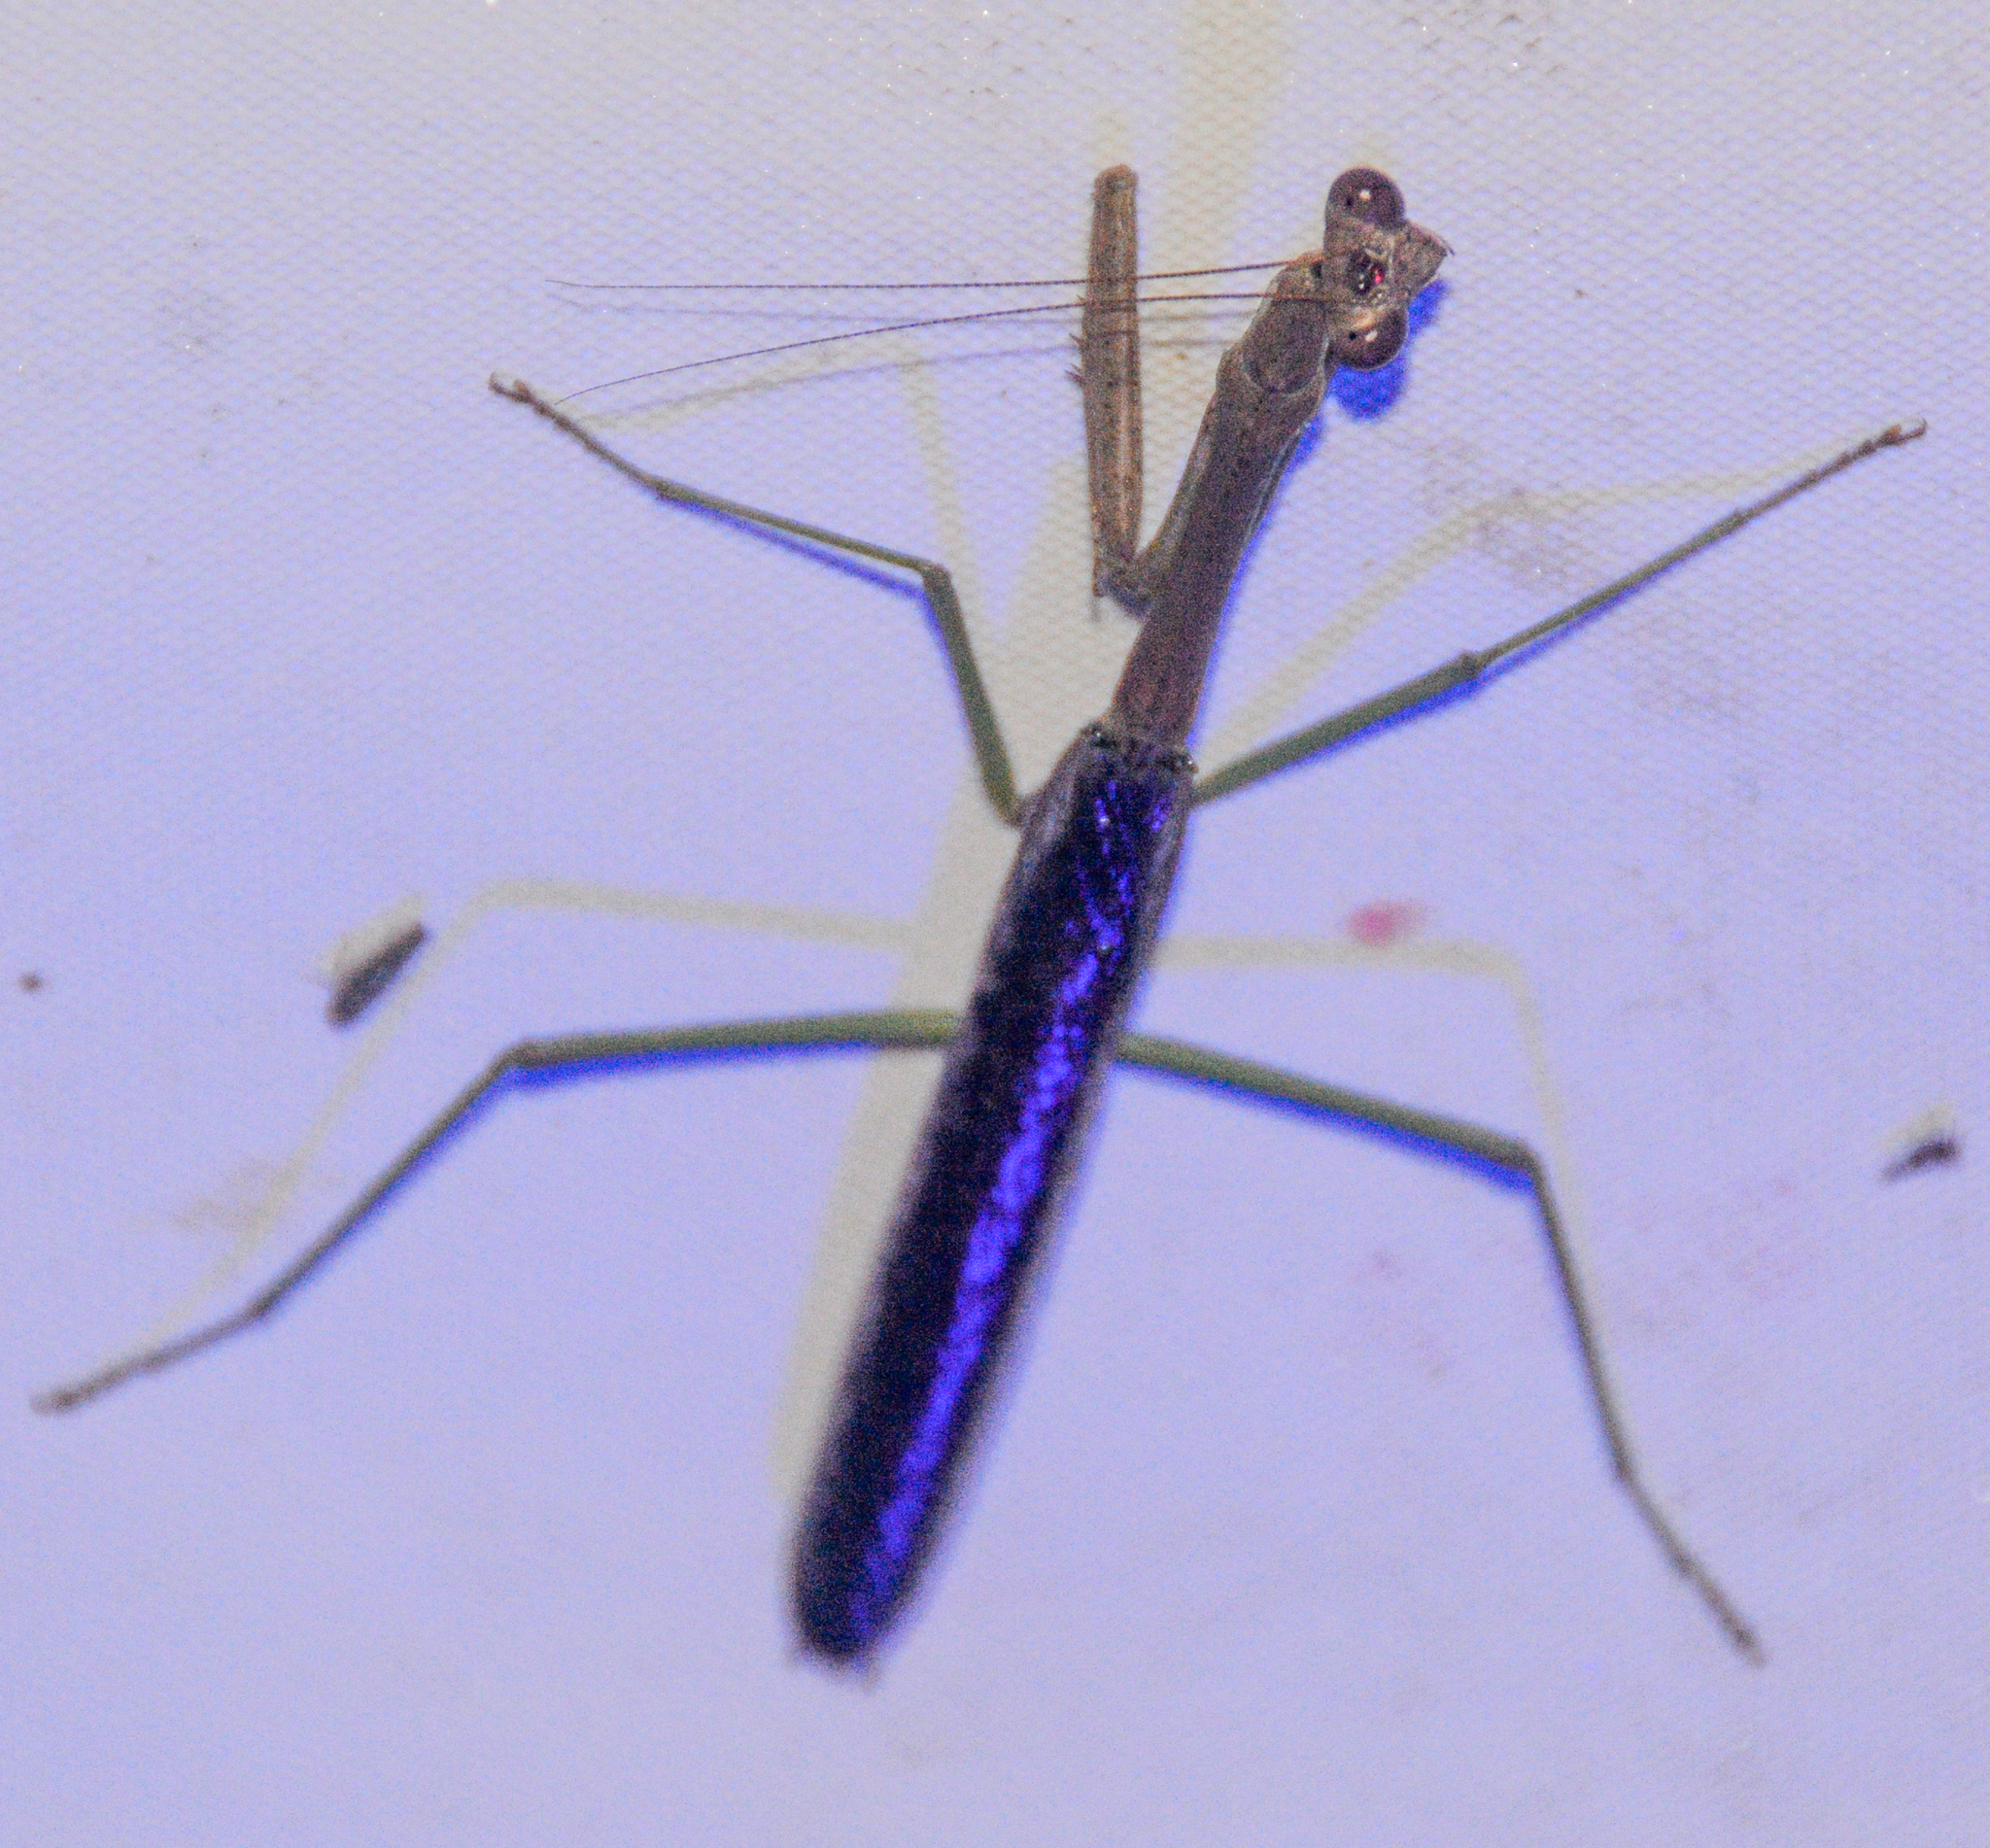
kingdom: Animalia
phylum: Arthropoda
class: Insecta
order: Mantodea
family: Mantidae
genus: Stagmomantis
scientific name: Stagmomantis carolina
